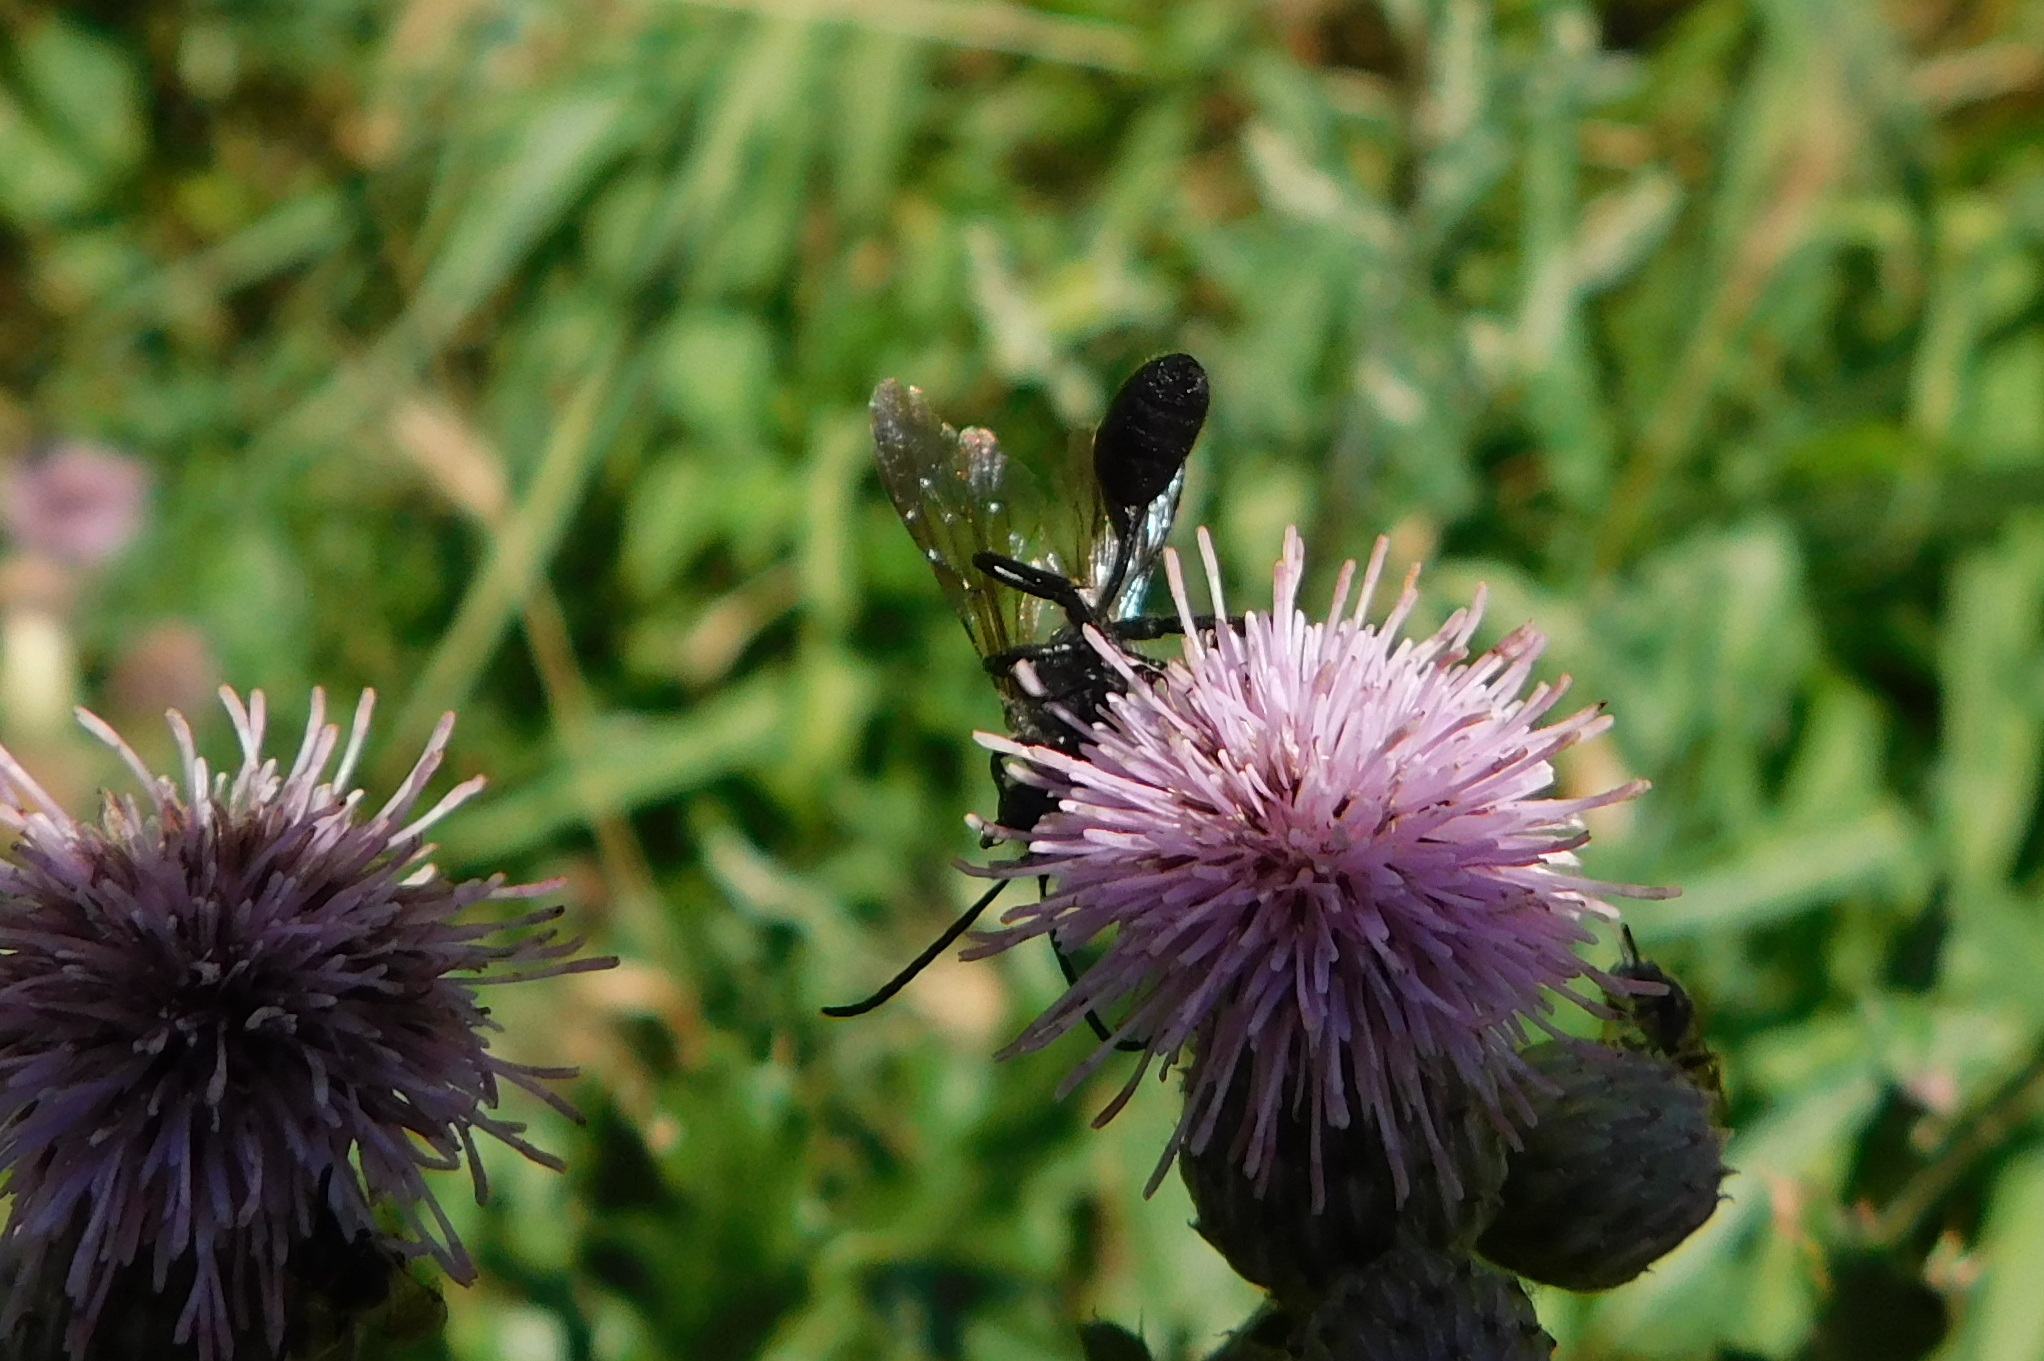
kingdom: Animalia
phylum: Arthropoda
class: Insecta
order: Hymenoptera
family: Sphecidae
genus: Isodontia
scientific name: Isodontia mexicana
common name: Mud dauber
